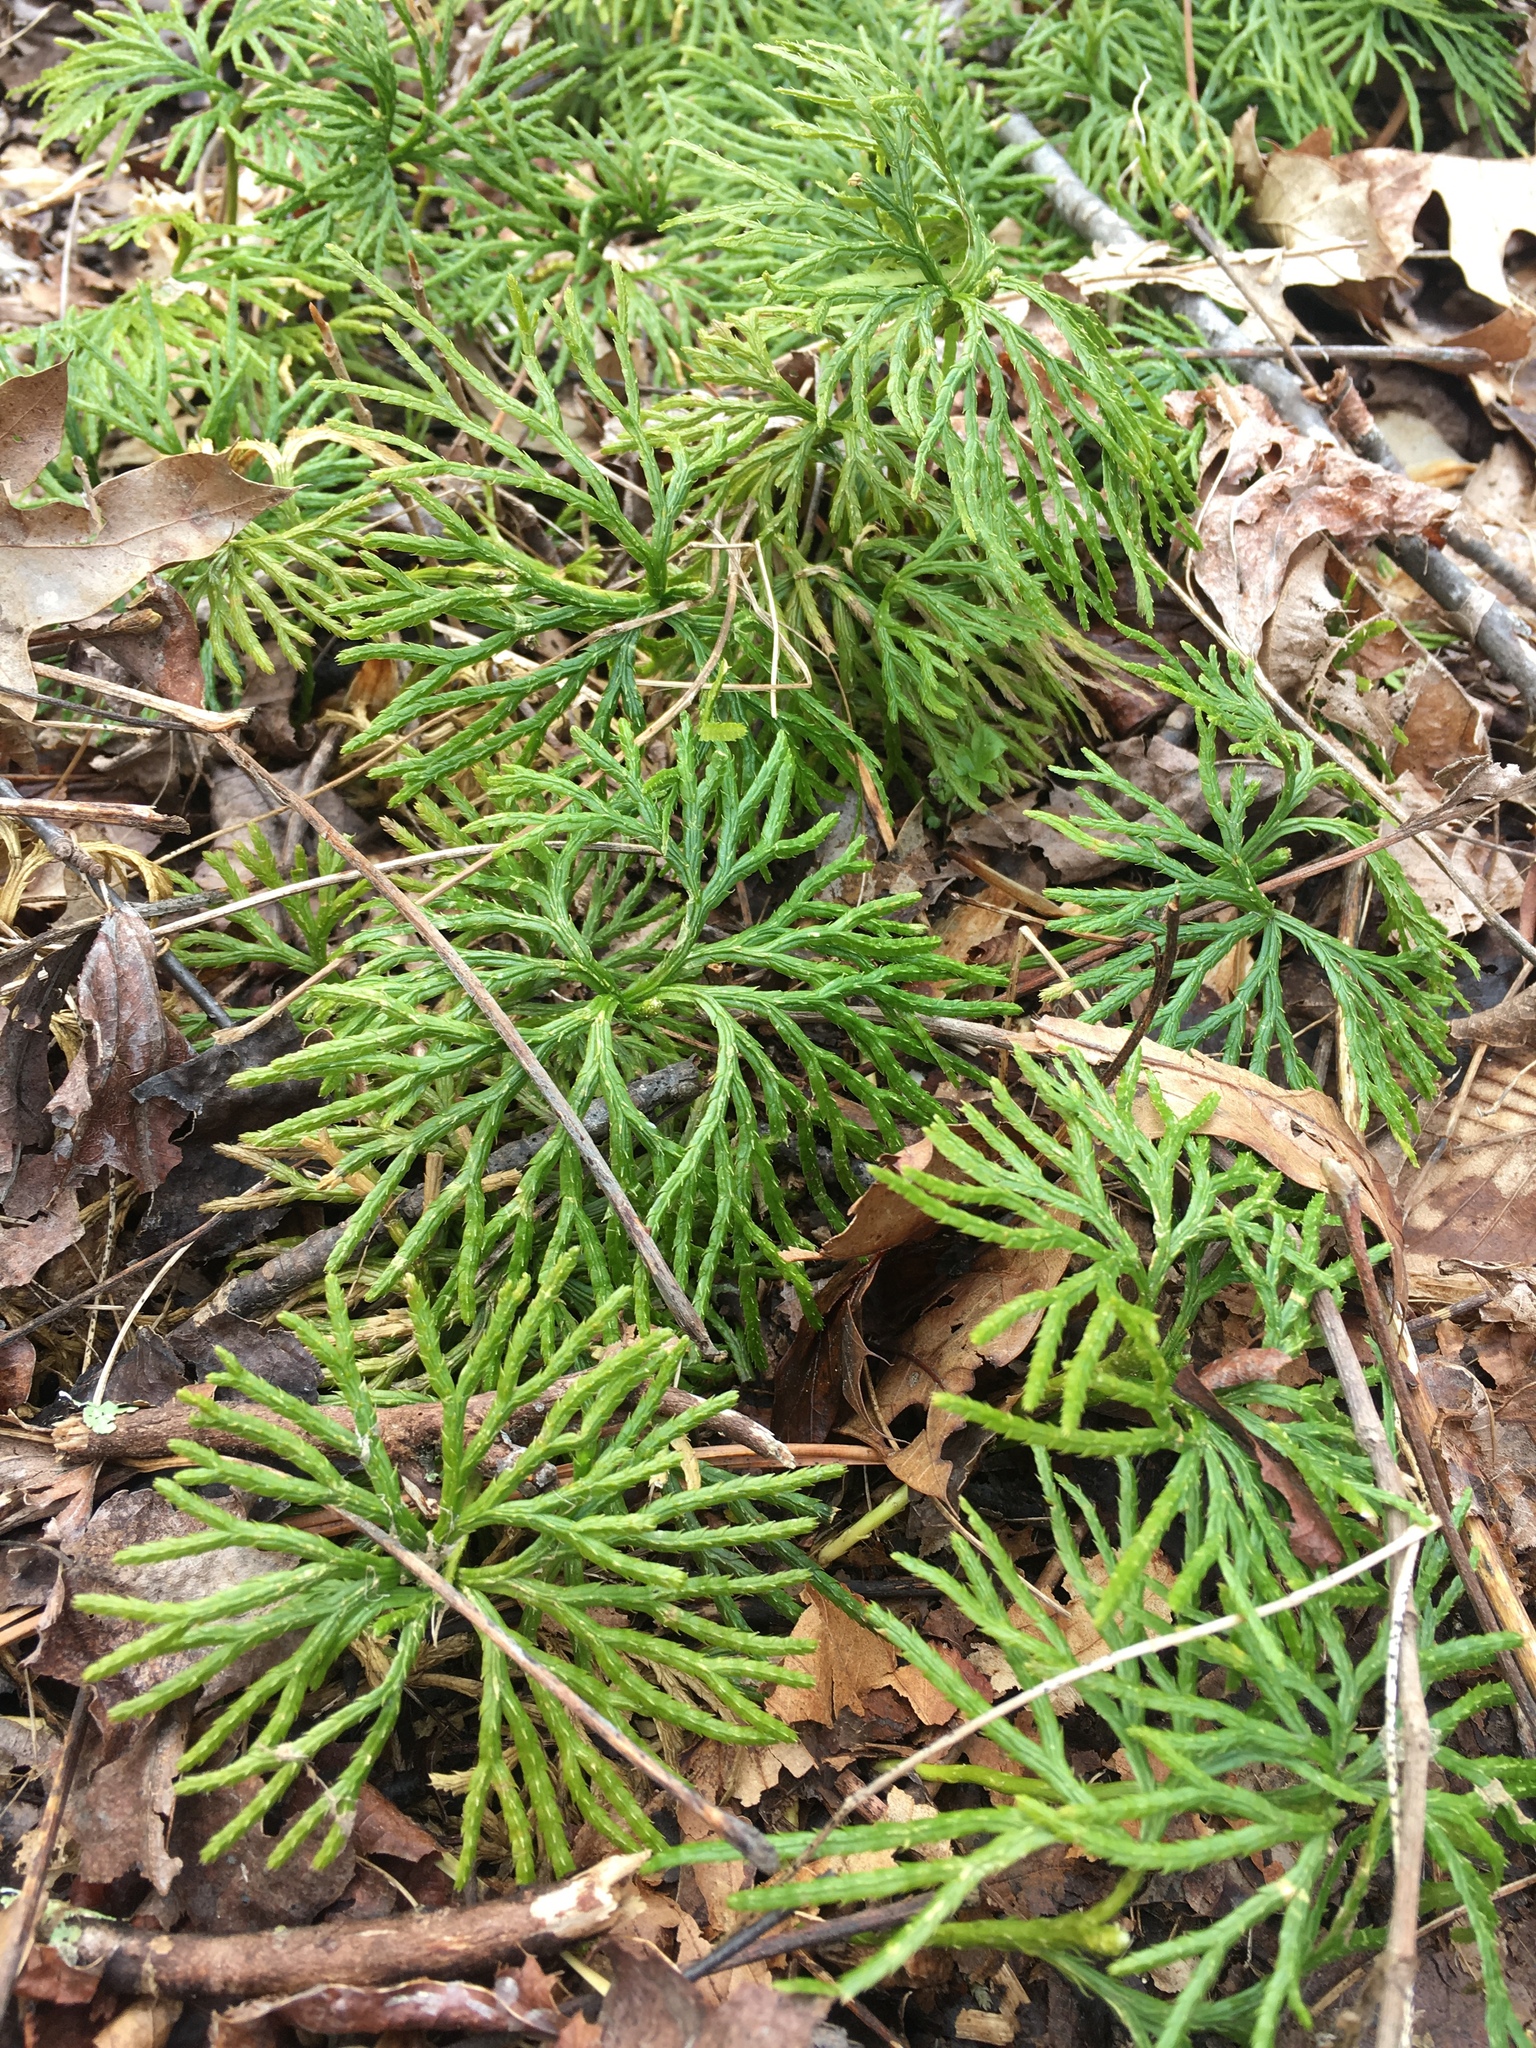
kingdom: Plantae
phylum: Tracheophyta
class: Lycopodiopsida
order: Lycopodiales
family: Lycopodiaceae
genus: Diphasiastrum
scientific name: Diphasiastrum digitatum
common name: Southern running-pine
